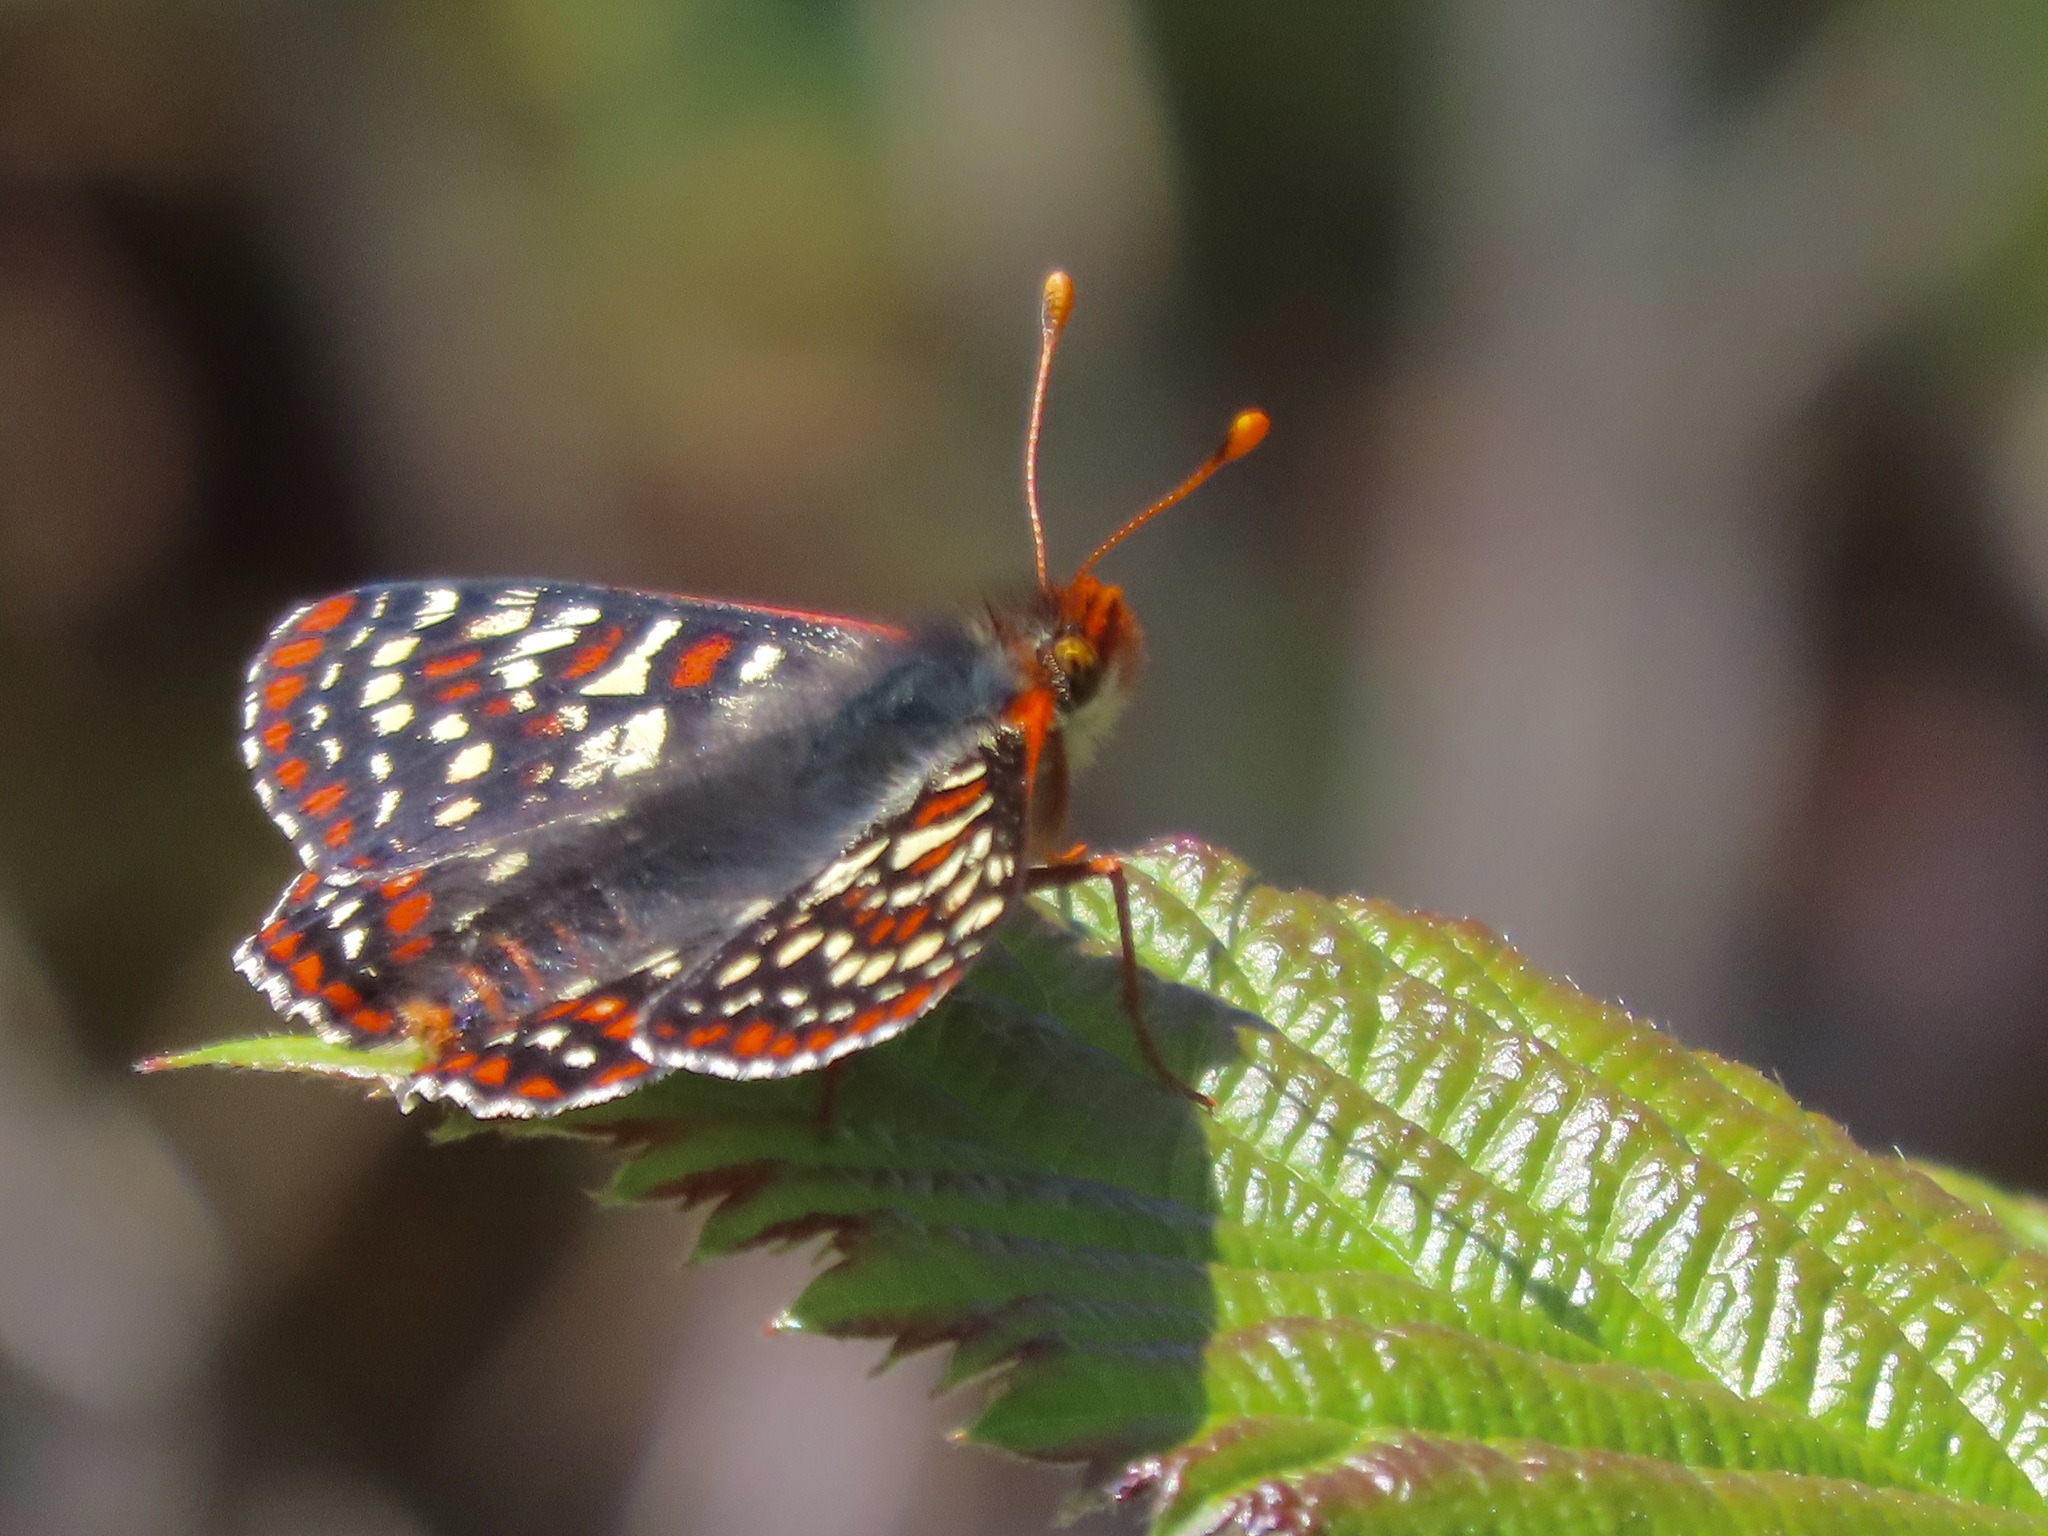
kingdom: Animalia
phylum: Arthropoda
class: Insecta
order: Lepidoptera
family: Nymphalidae
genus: Occidryas
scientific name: Occidryas editha
